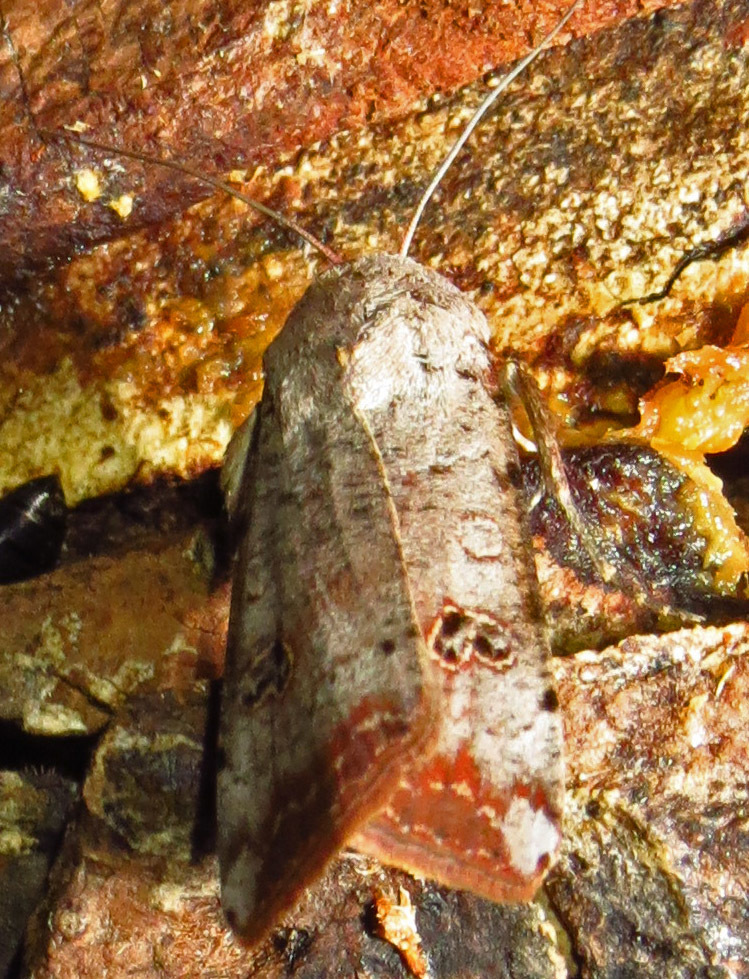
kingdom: Animalia
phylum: Arthropoda
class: Insecta
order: Lepidoptera
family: Noctuidae
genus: Anicla
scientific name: Anicla infecta
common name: Green cutworm
